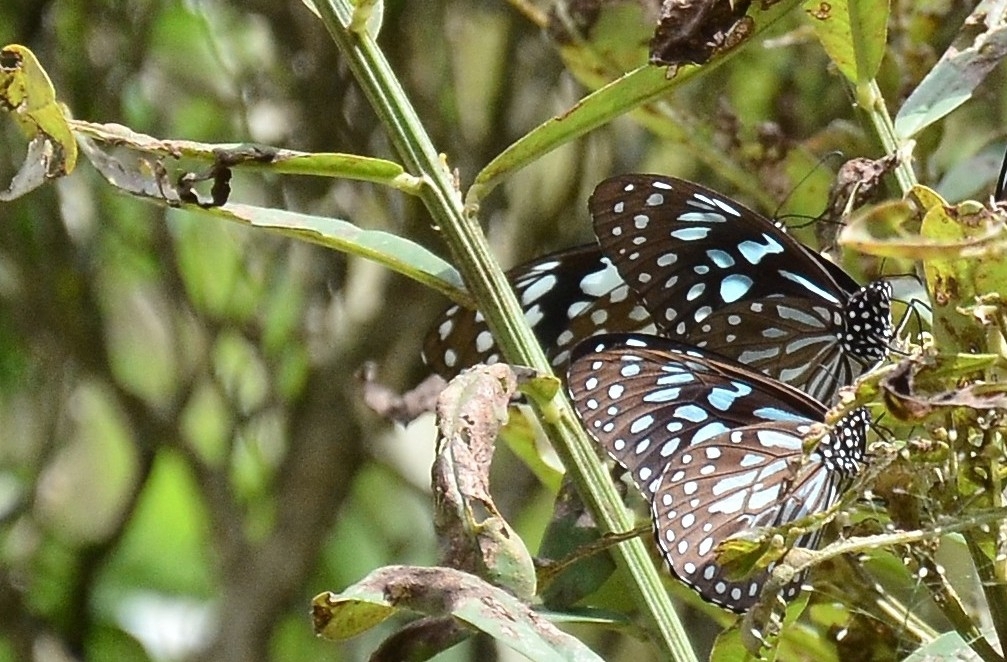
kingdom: Animalia
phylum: Arthropoda
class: Insecta
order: Lepidoptera
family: Nymphalidae
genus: Tirumala
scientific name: Tirumala septentrionis
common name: Dark blue tiger butterfly
